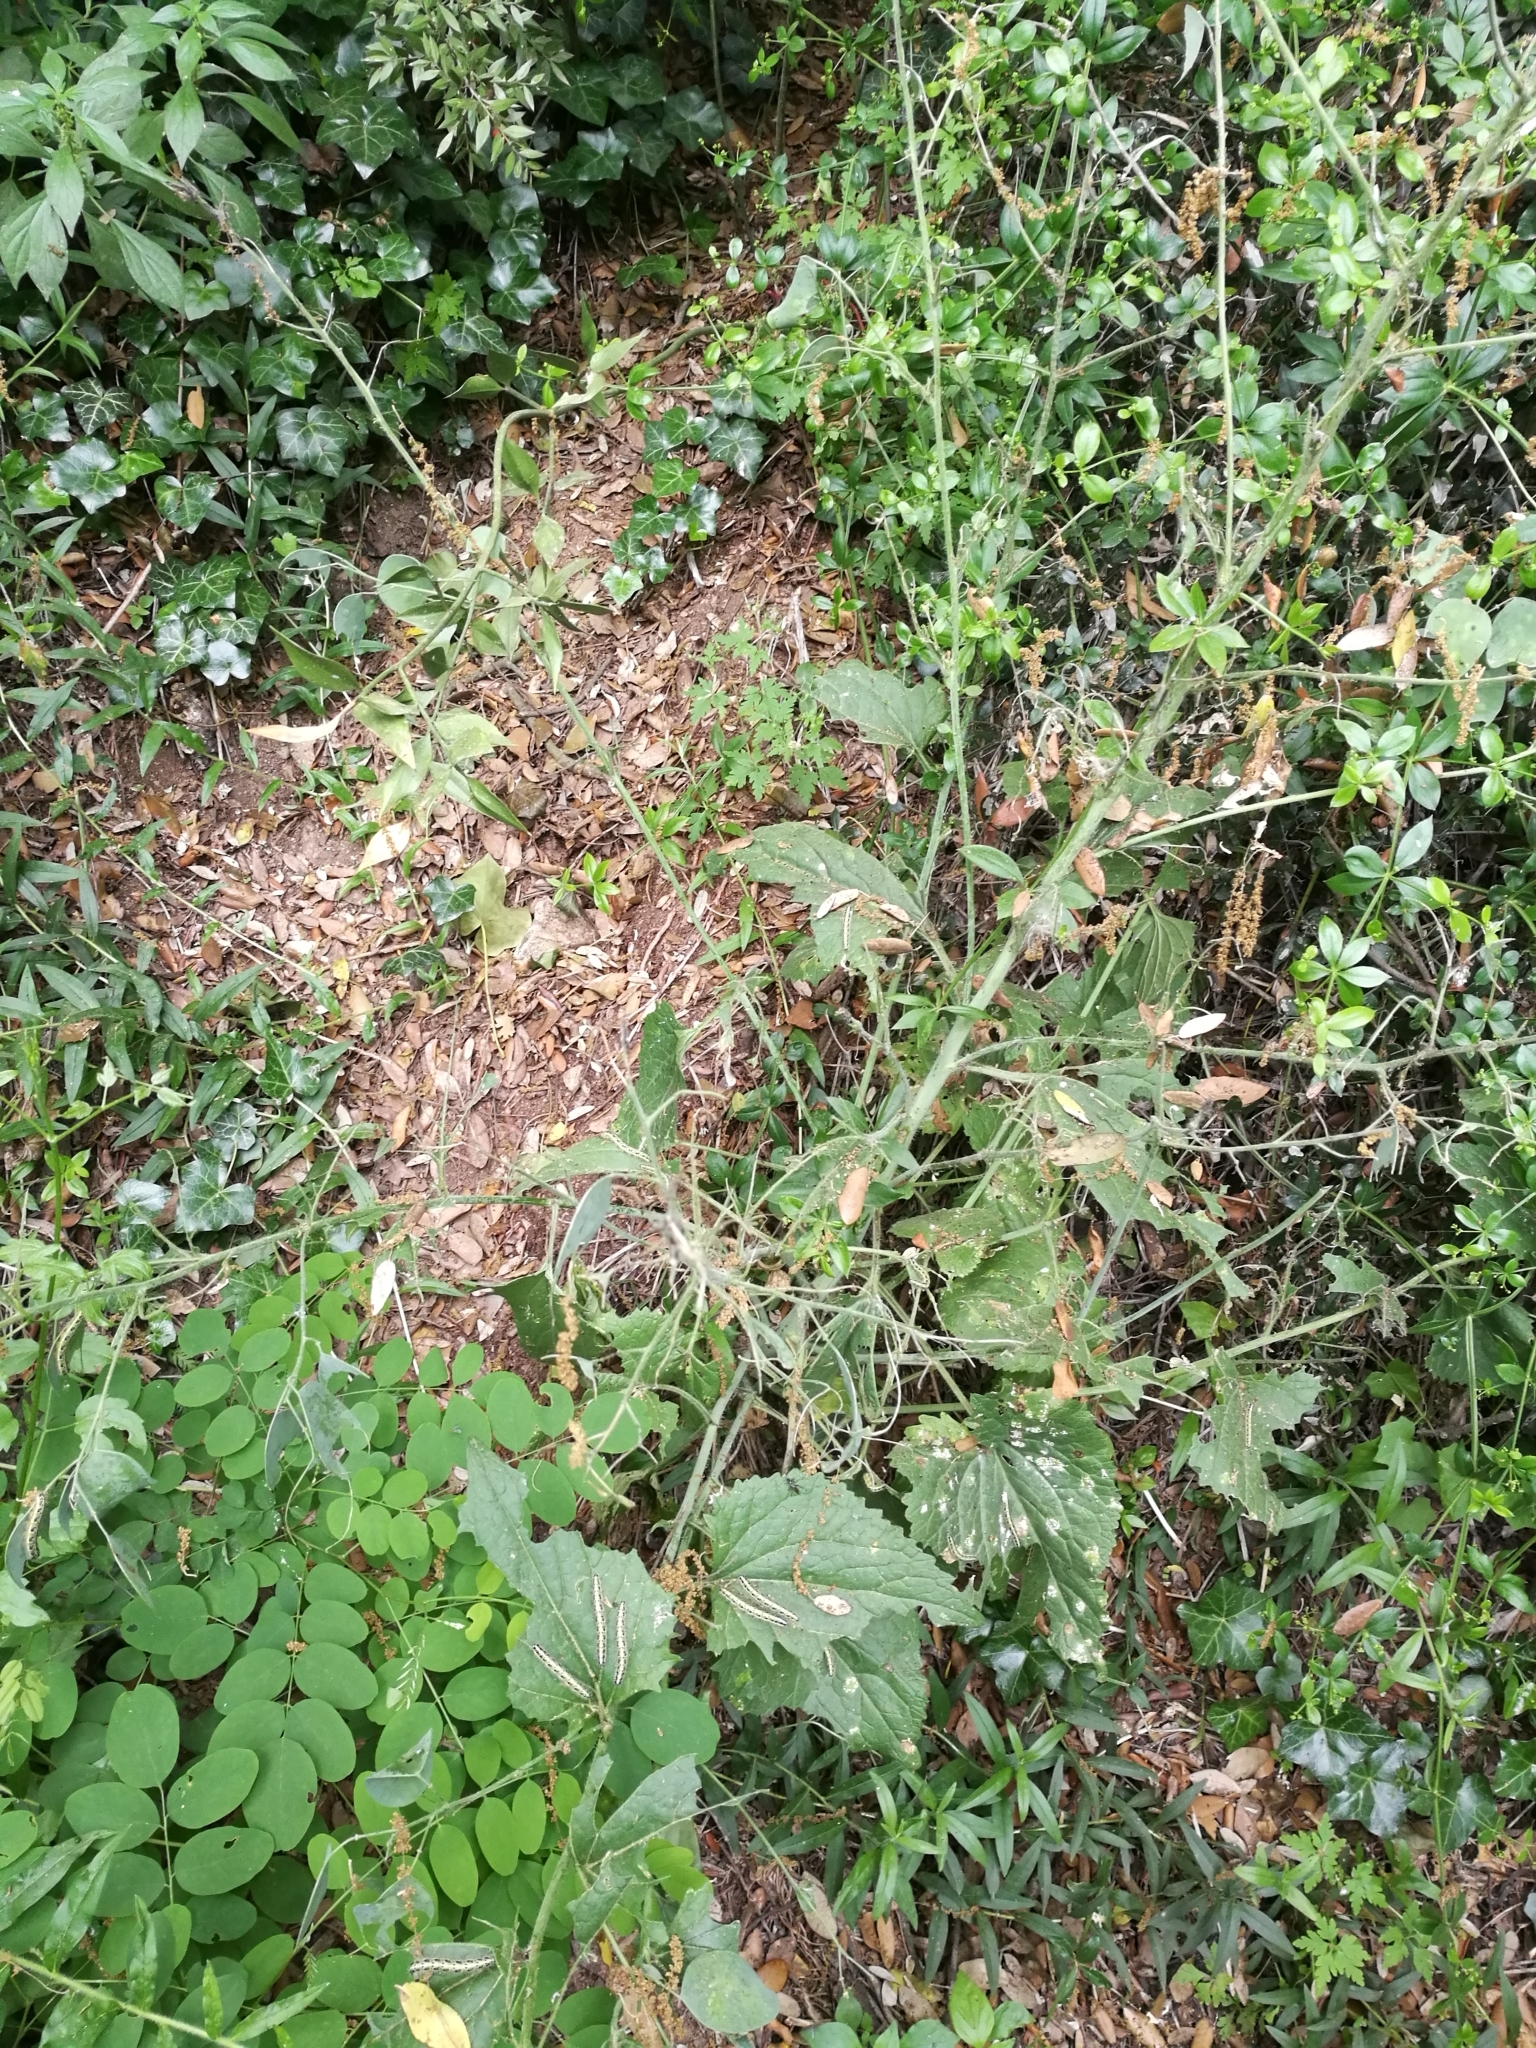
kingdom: Animalia
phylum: Arthropoda
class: Insecta
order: Lepidoptera
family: Pieridae
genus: Pieris
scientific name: Pieris brassicae
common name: Large white
